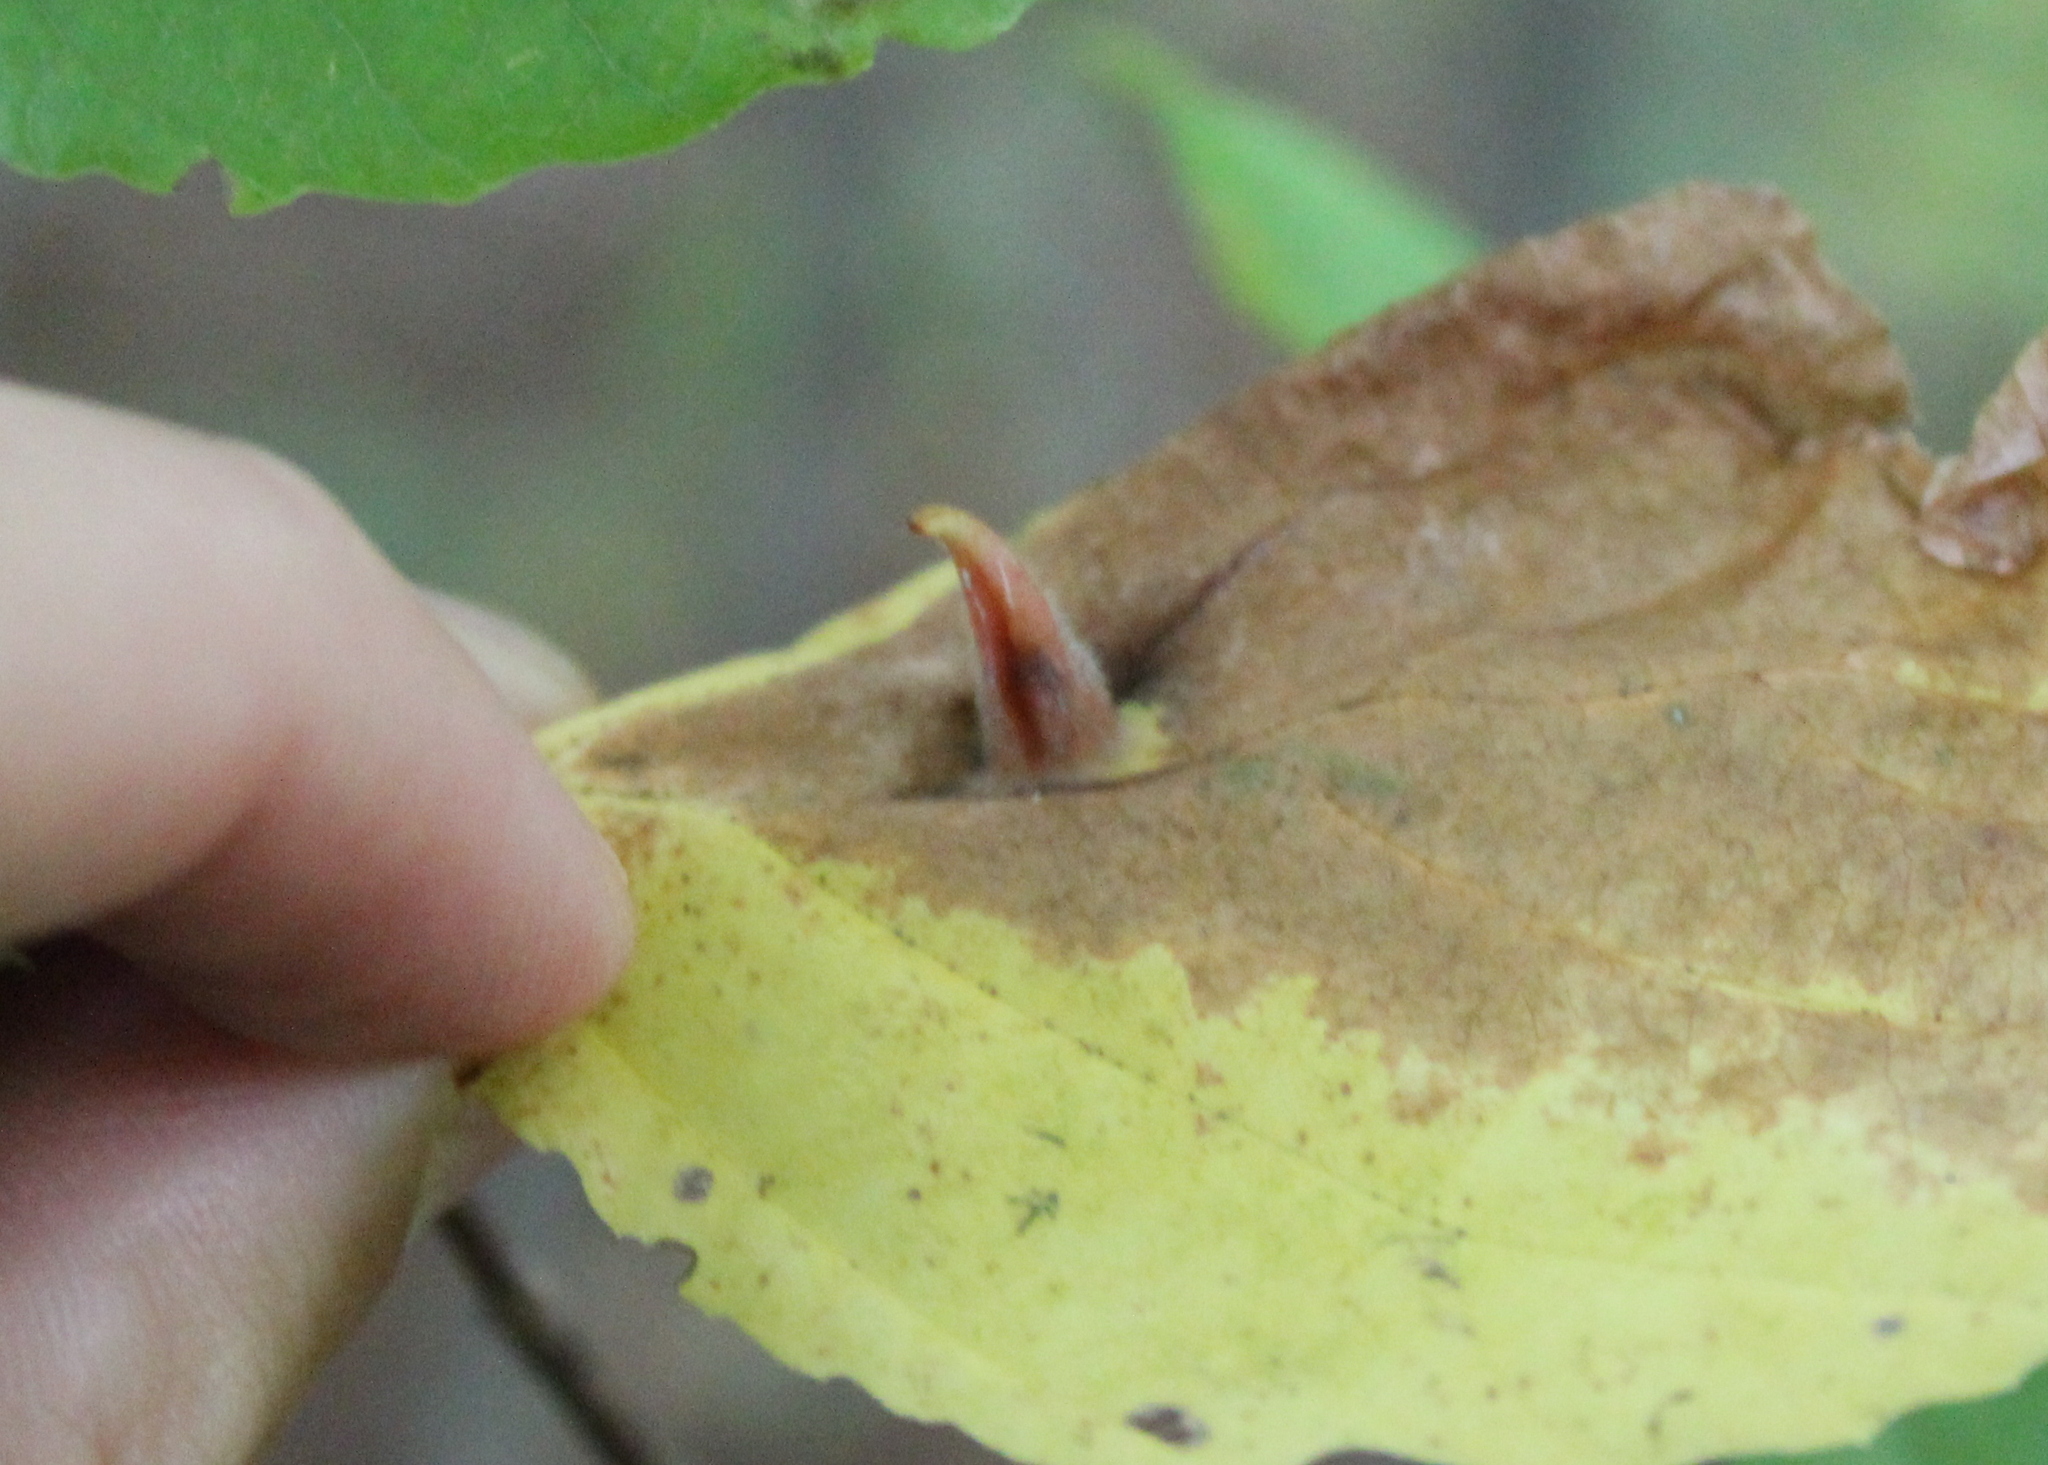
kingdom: Animalia
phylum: Arthropoda
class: Insecta
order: Hemiptera
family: Aphididae
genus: Hormaphis
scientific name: Hormaphis hamamelidis
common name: Witch-hazel cone gall aphid
